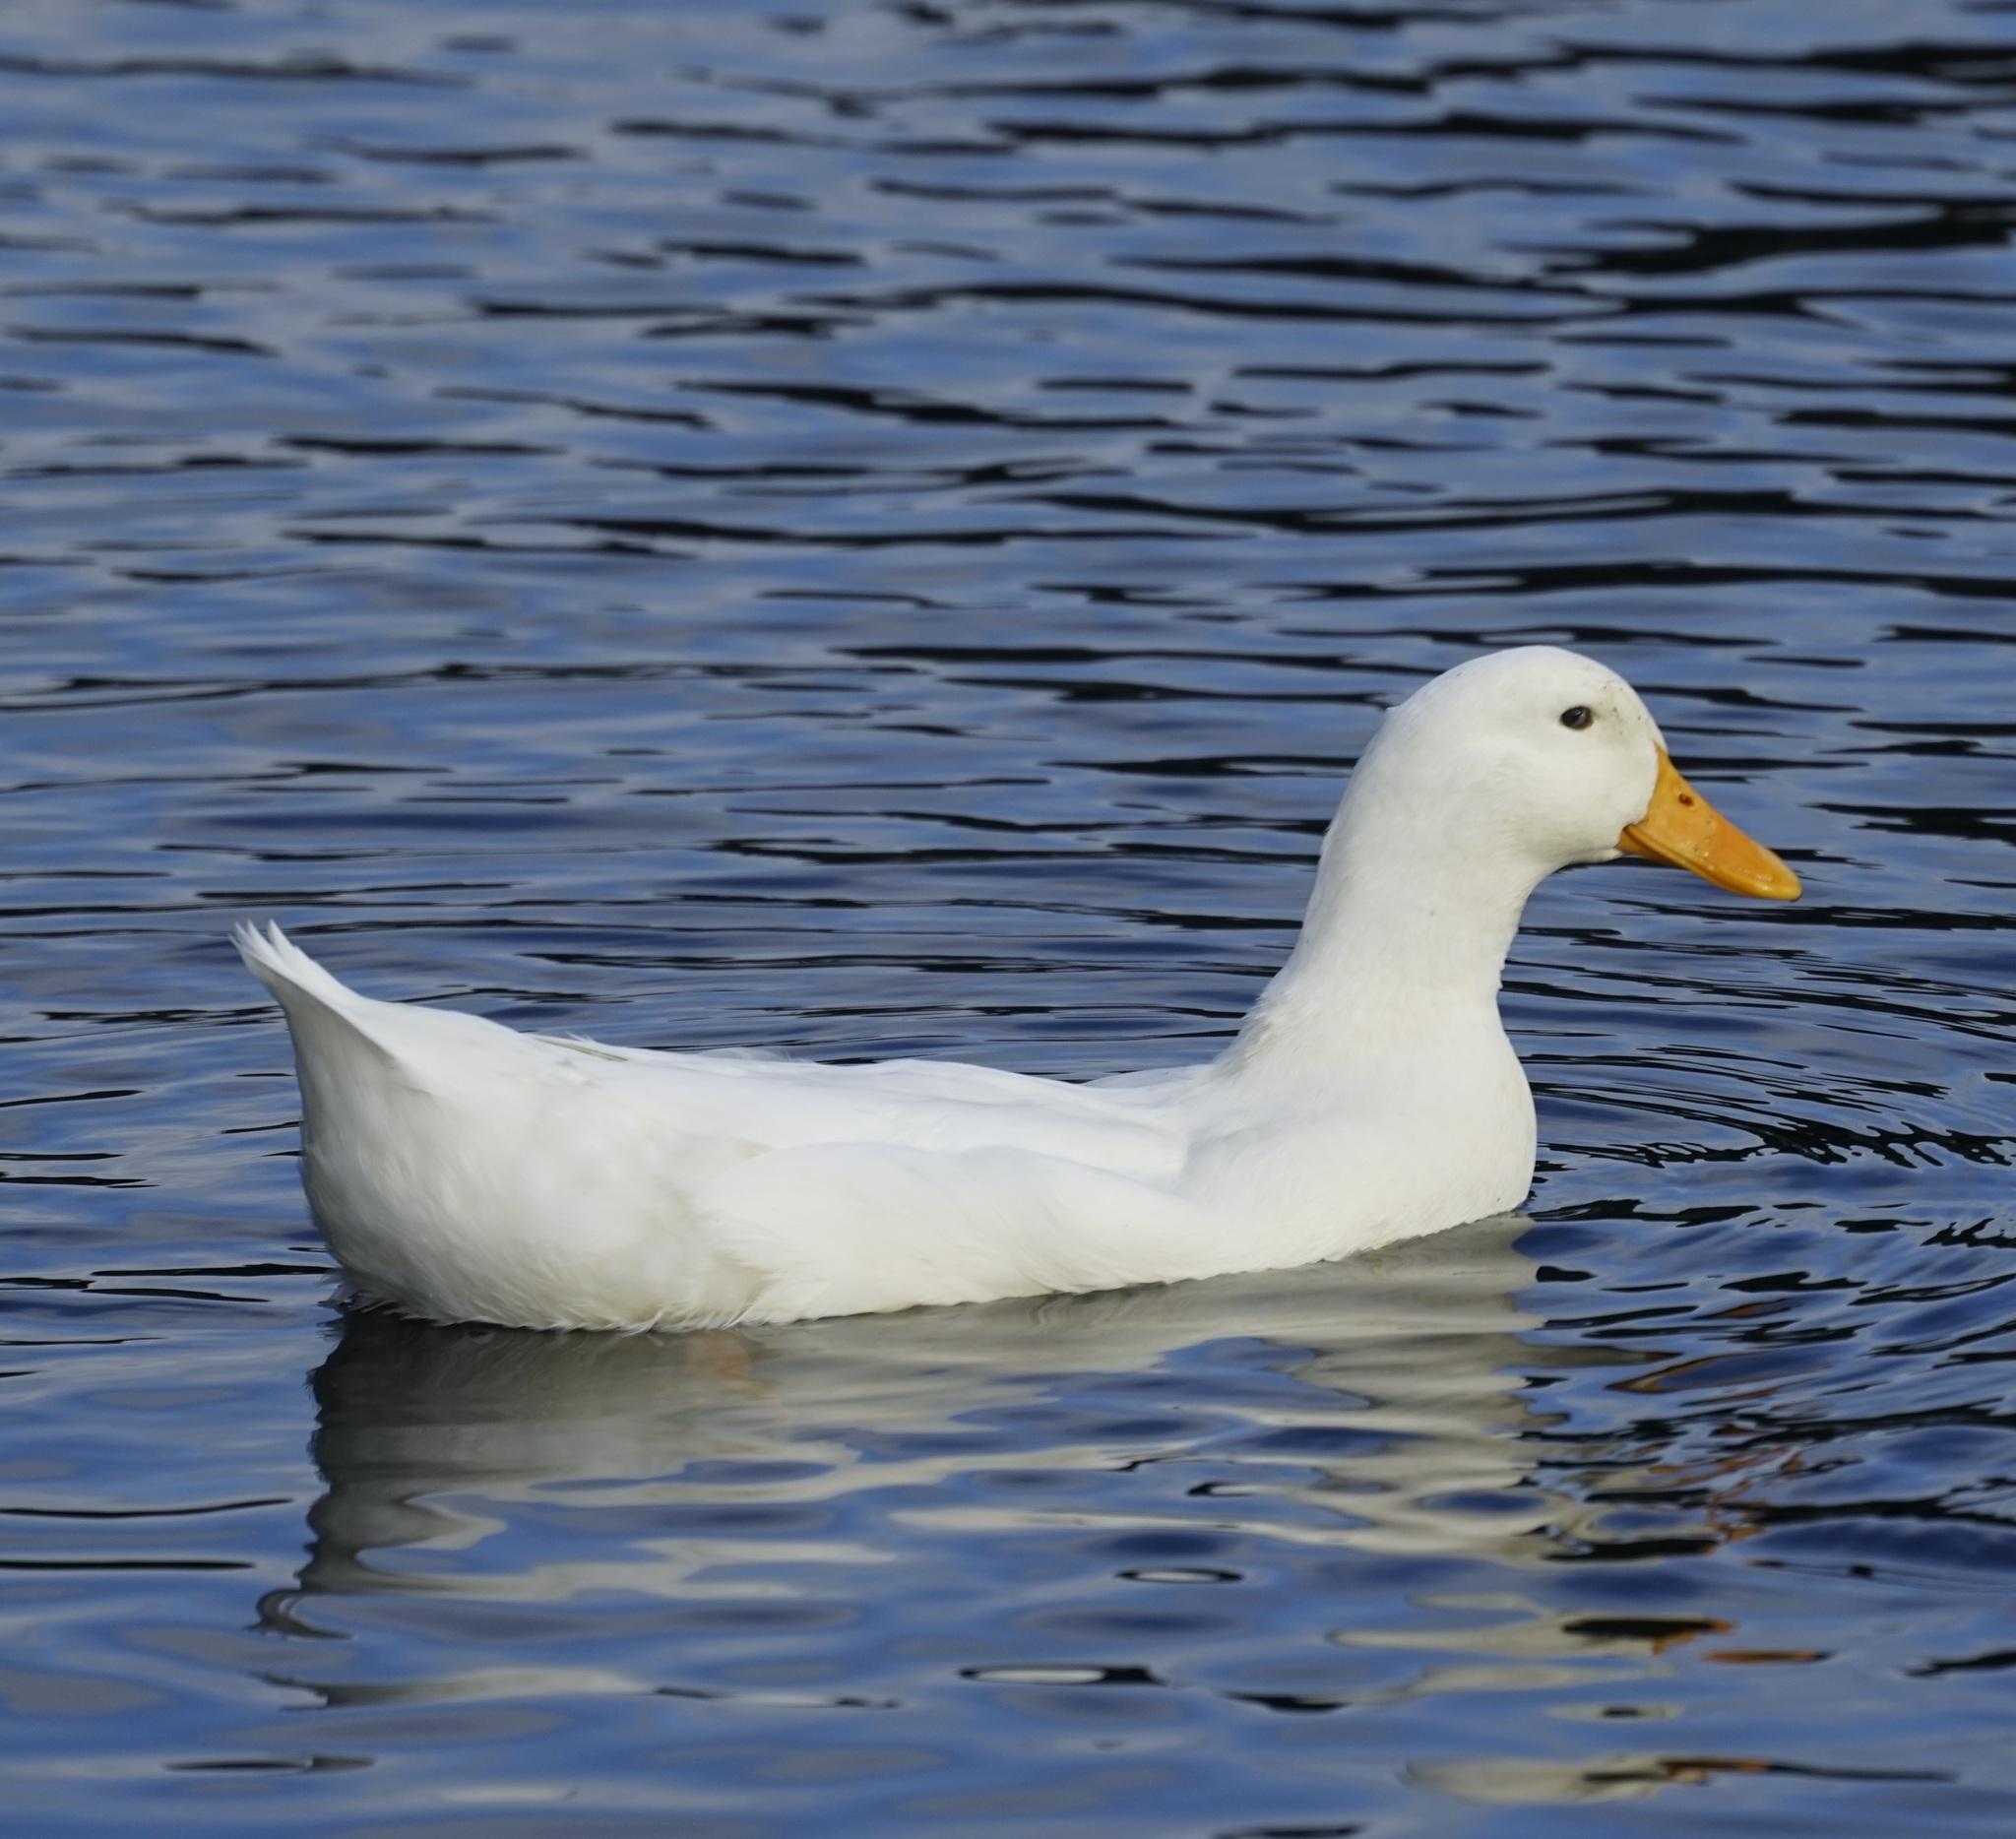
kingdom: Animalia
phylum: Chordata
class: Aves
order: Anseriformes
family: Anatidae
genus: Anas
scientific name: Anas platyrhynchos
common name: Mallard
